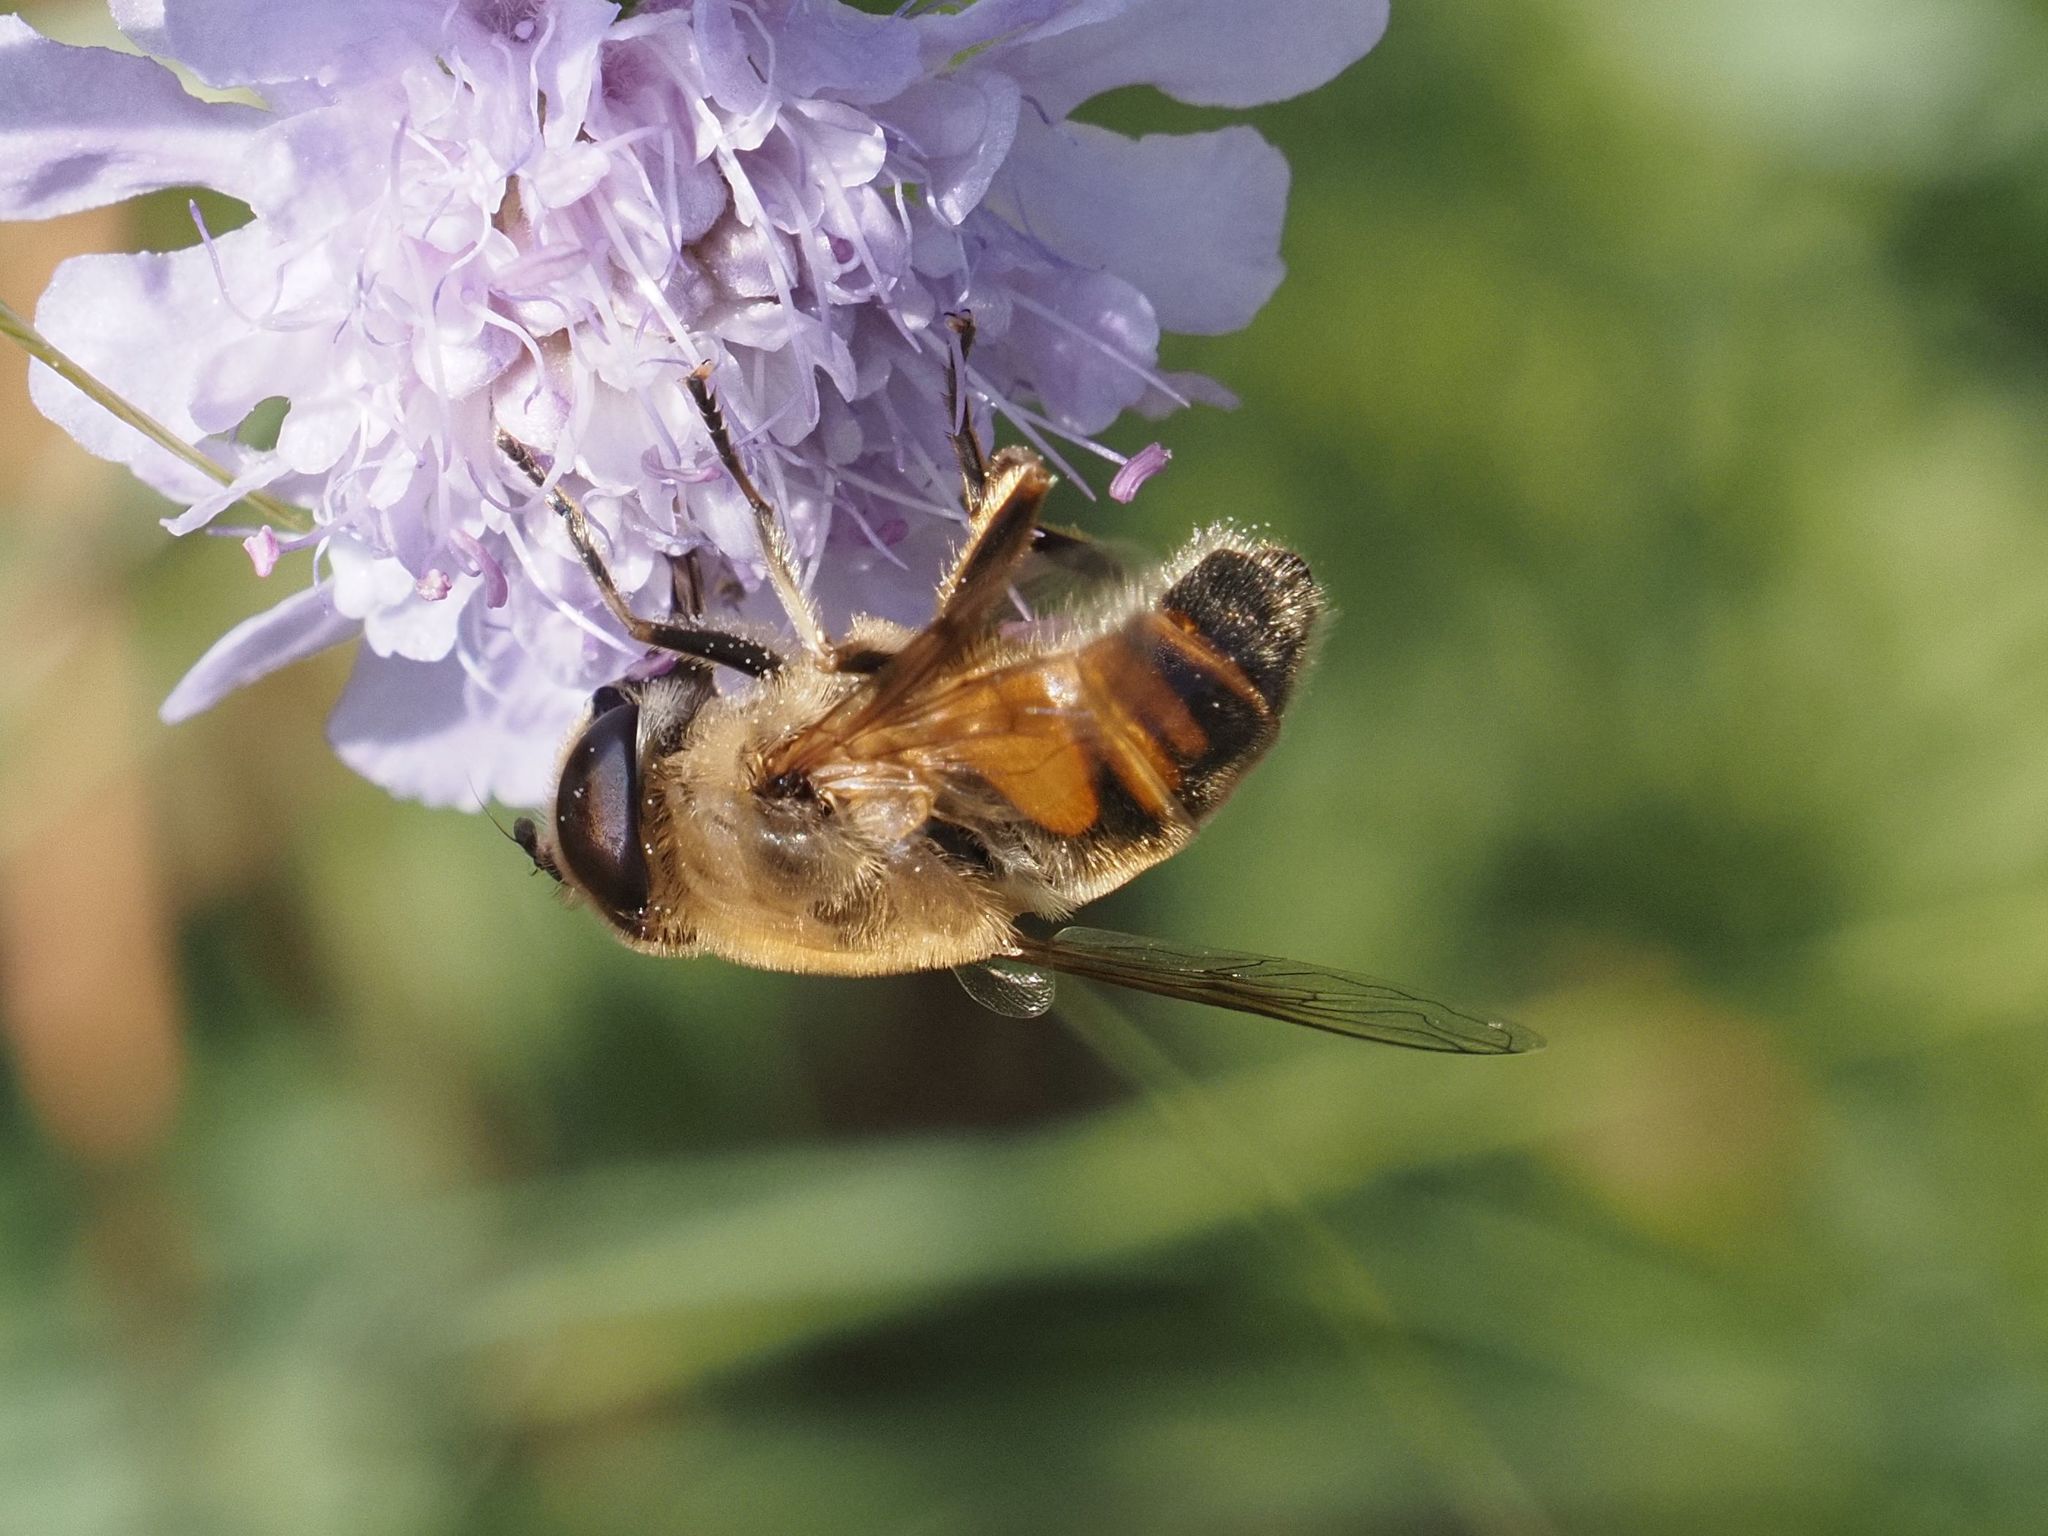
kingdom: Animalia
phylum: Arthropoda
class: Insecta
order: Diptera
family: Syrphidae
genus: Eristalis
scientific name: Eristalis tenax
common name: Drone fly
